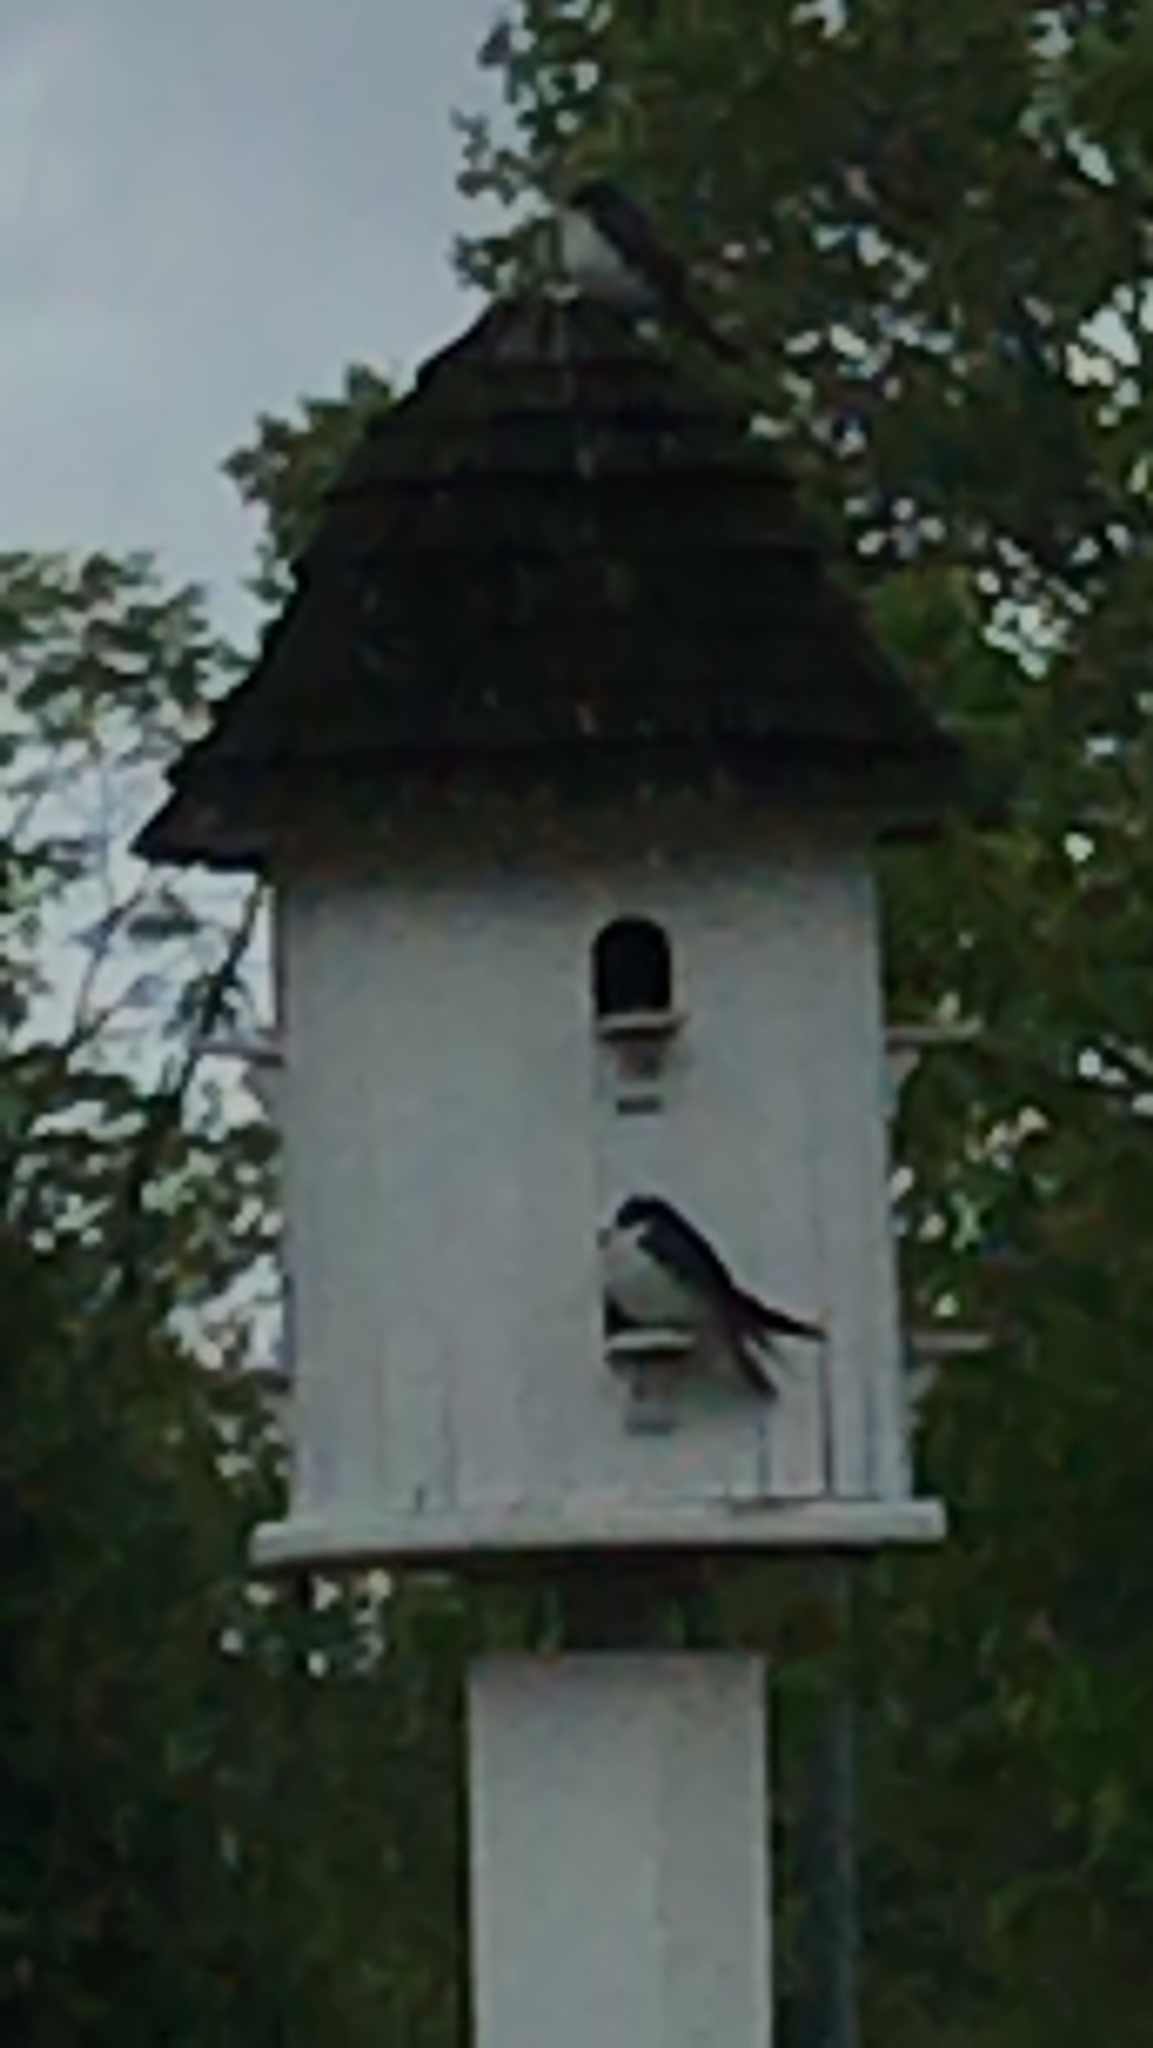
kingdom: Animalia
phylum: Chordata
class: Aves
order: Passeriformes
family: Hirundinidae
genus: Tachycineta
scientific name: Tachycineta bicolor
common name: Tree swallow
